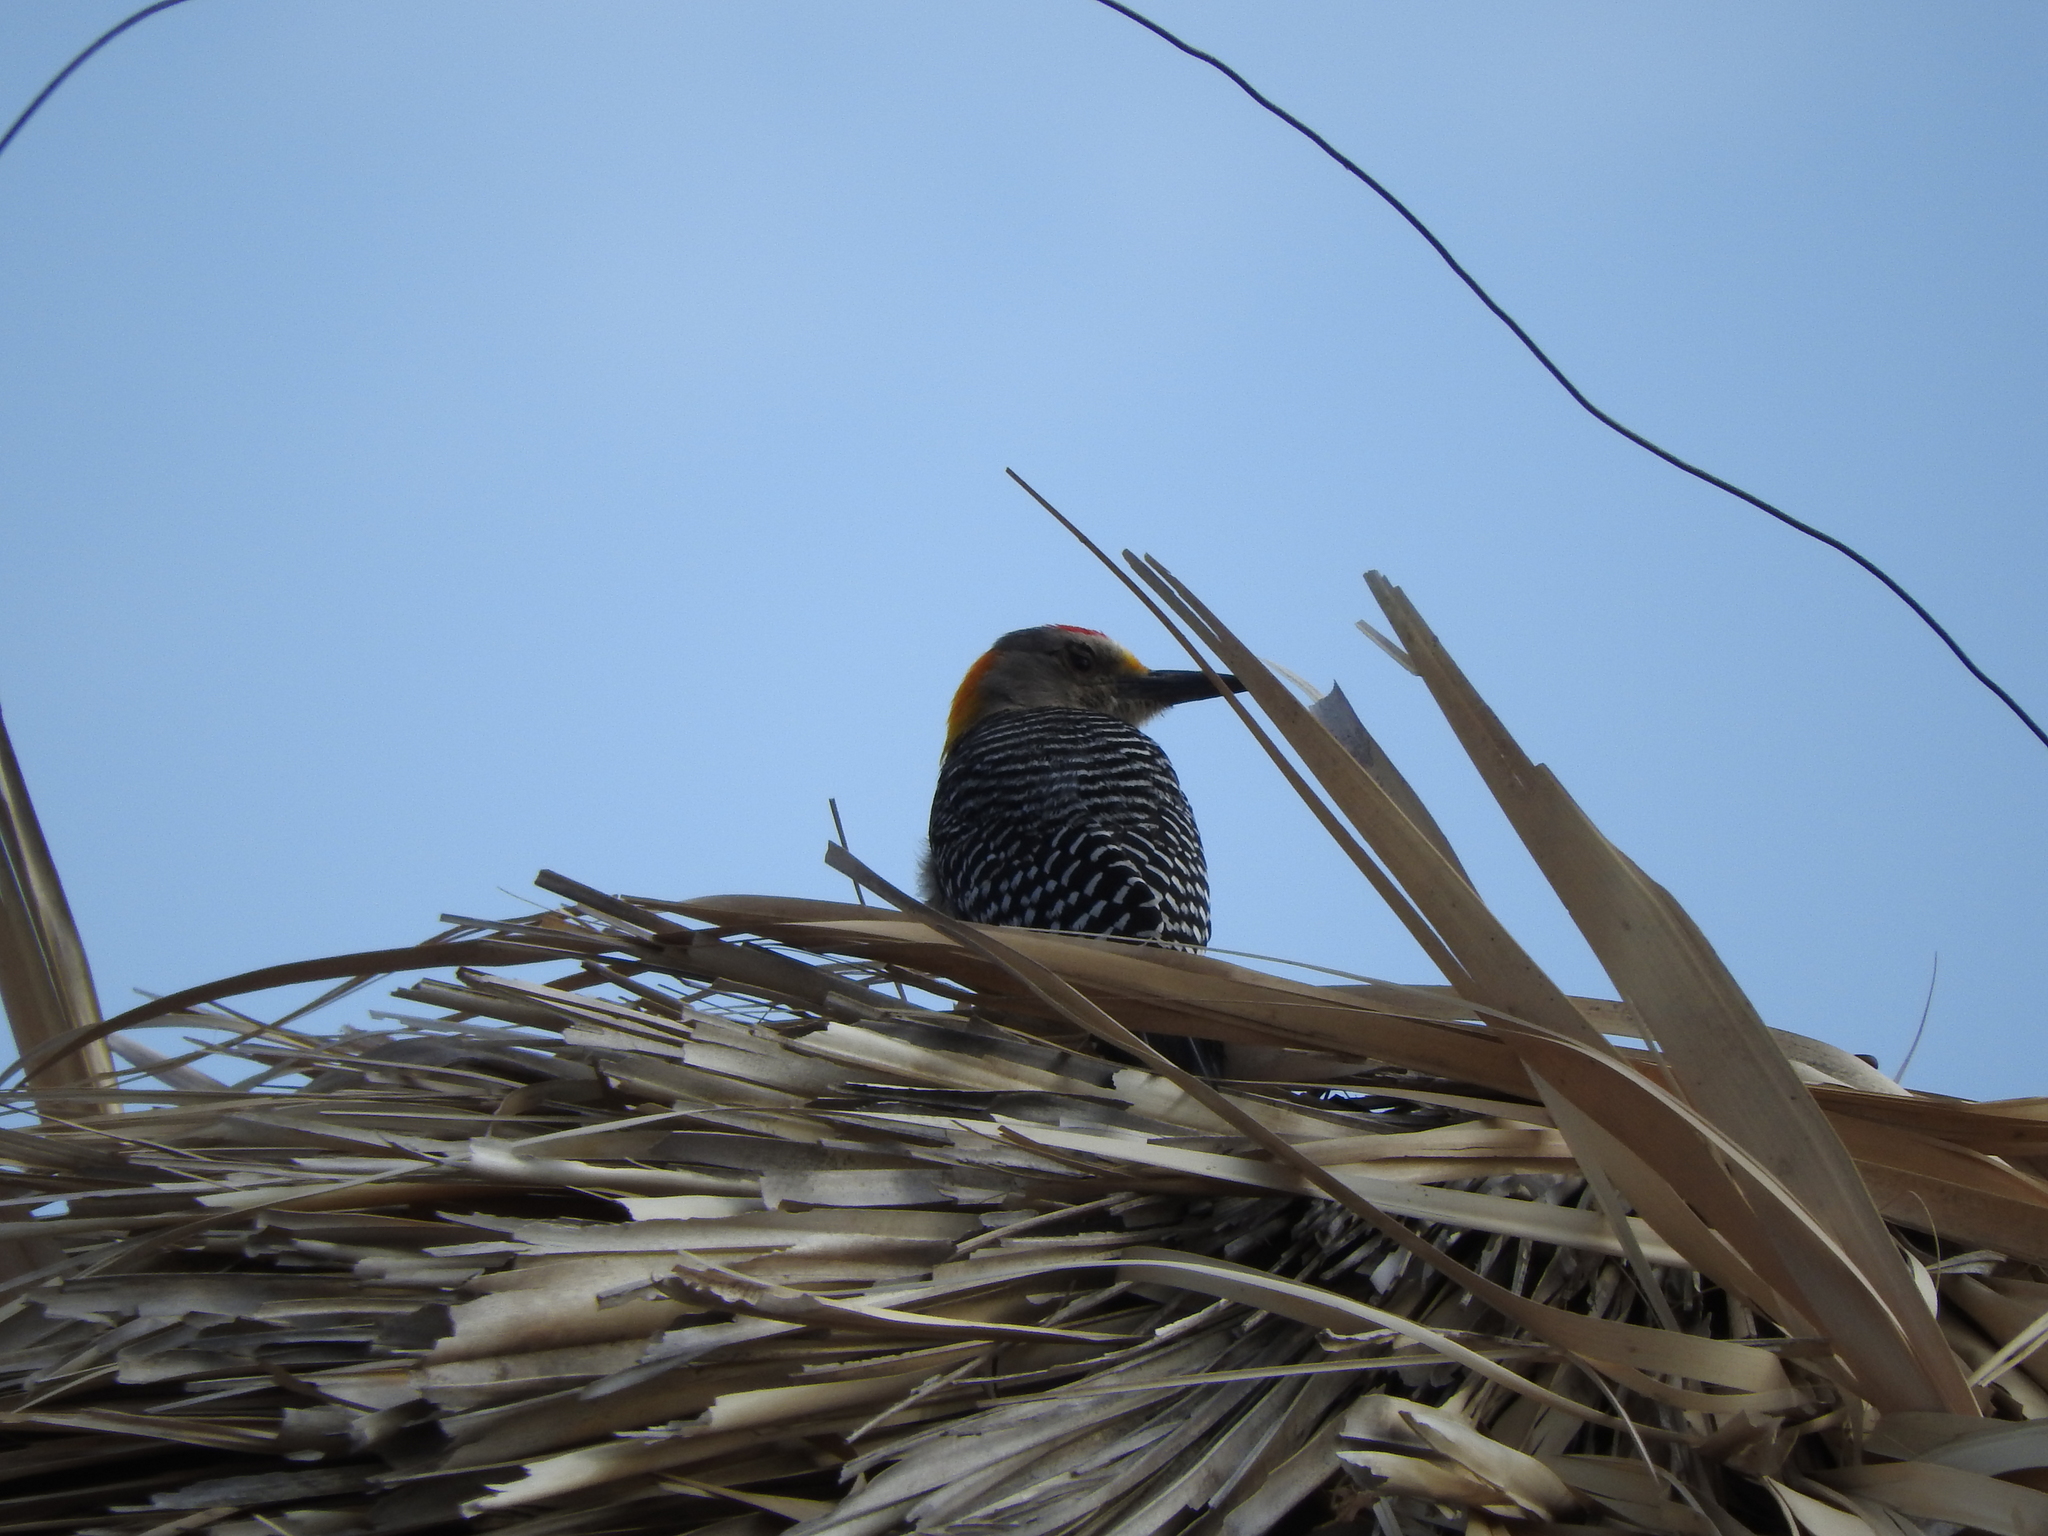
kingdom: Animalia
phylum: Chordata
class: Aves
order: Piciformes
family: Picidae
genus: Melanerpes
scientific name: Melanerpes aurifrons
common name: Golden-fronted woodpecker
